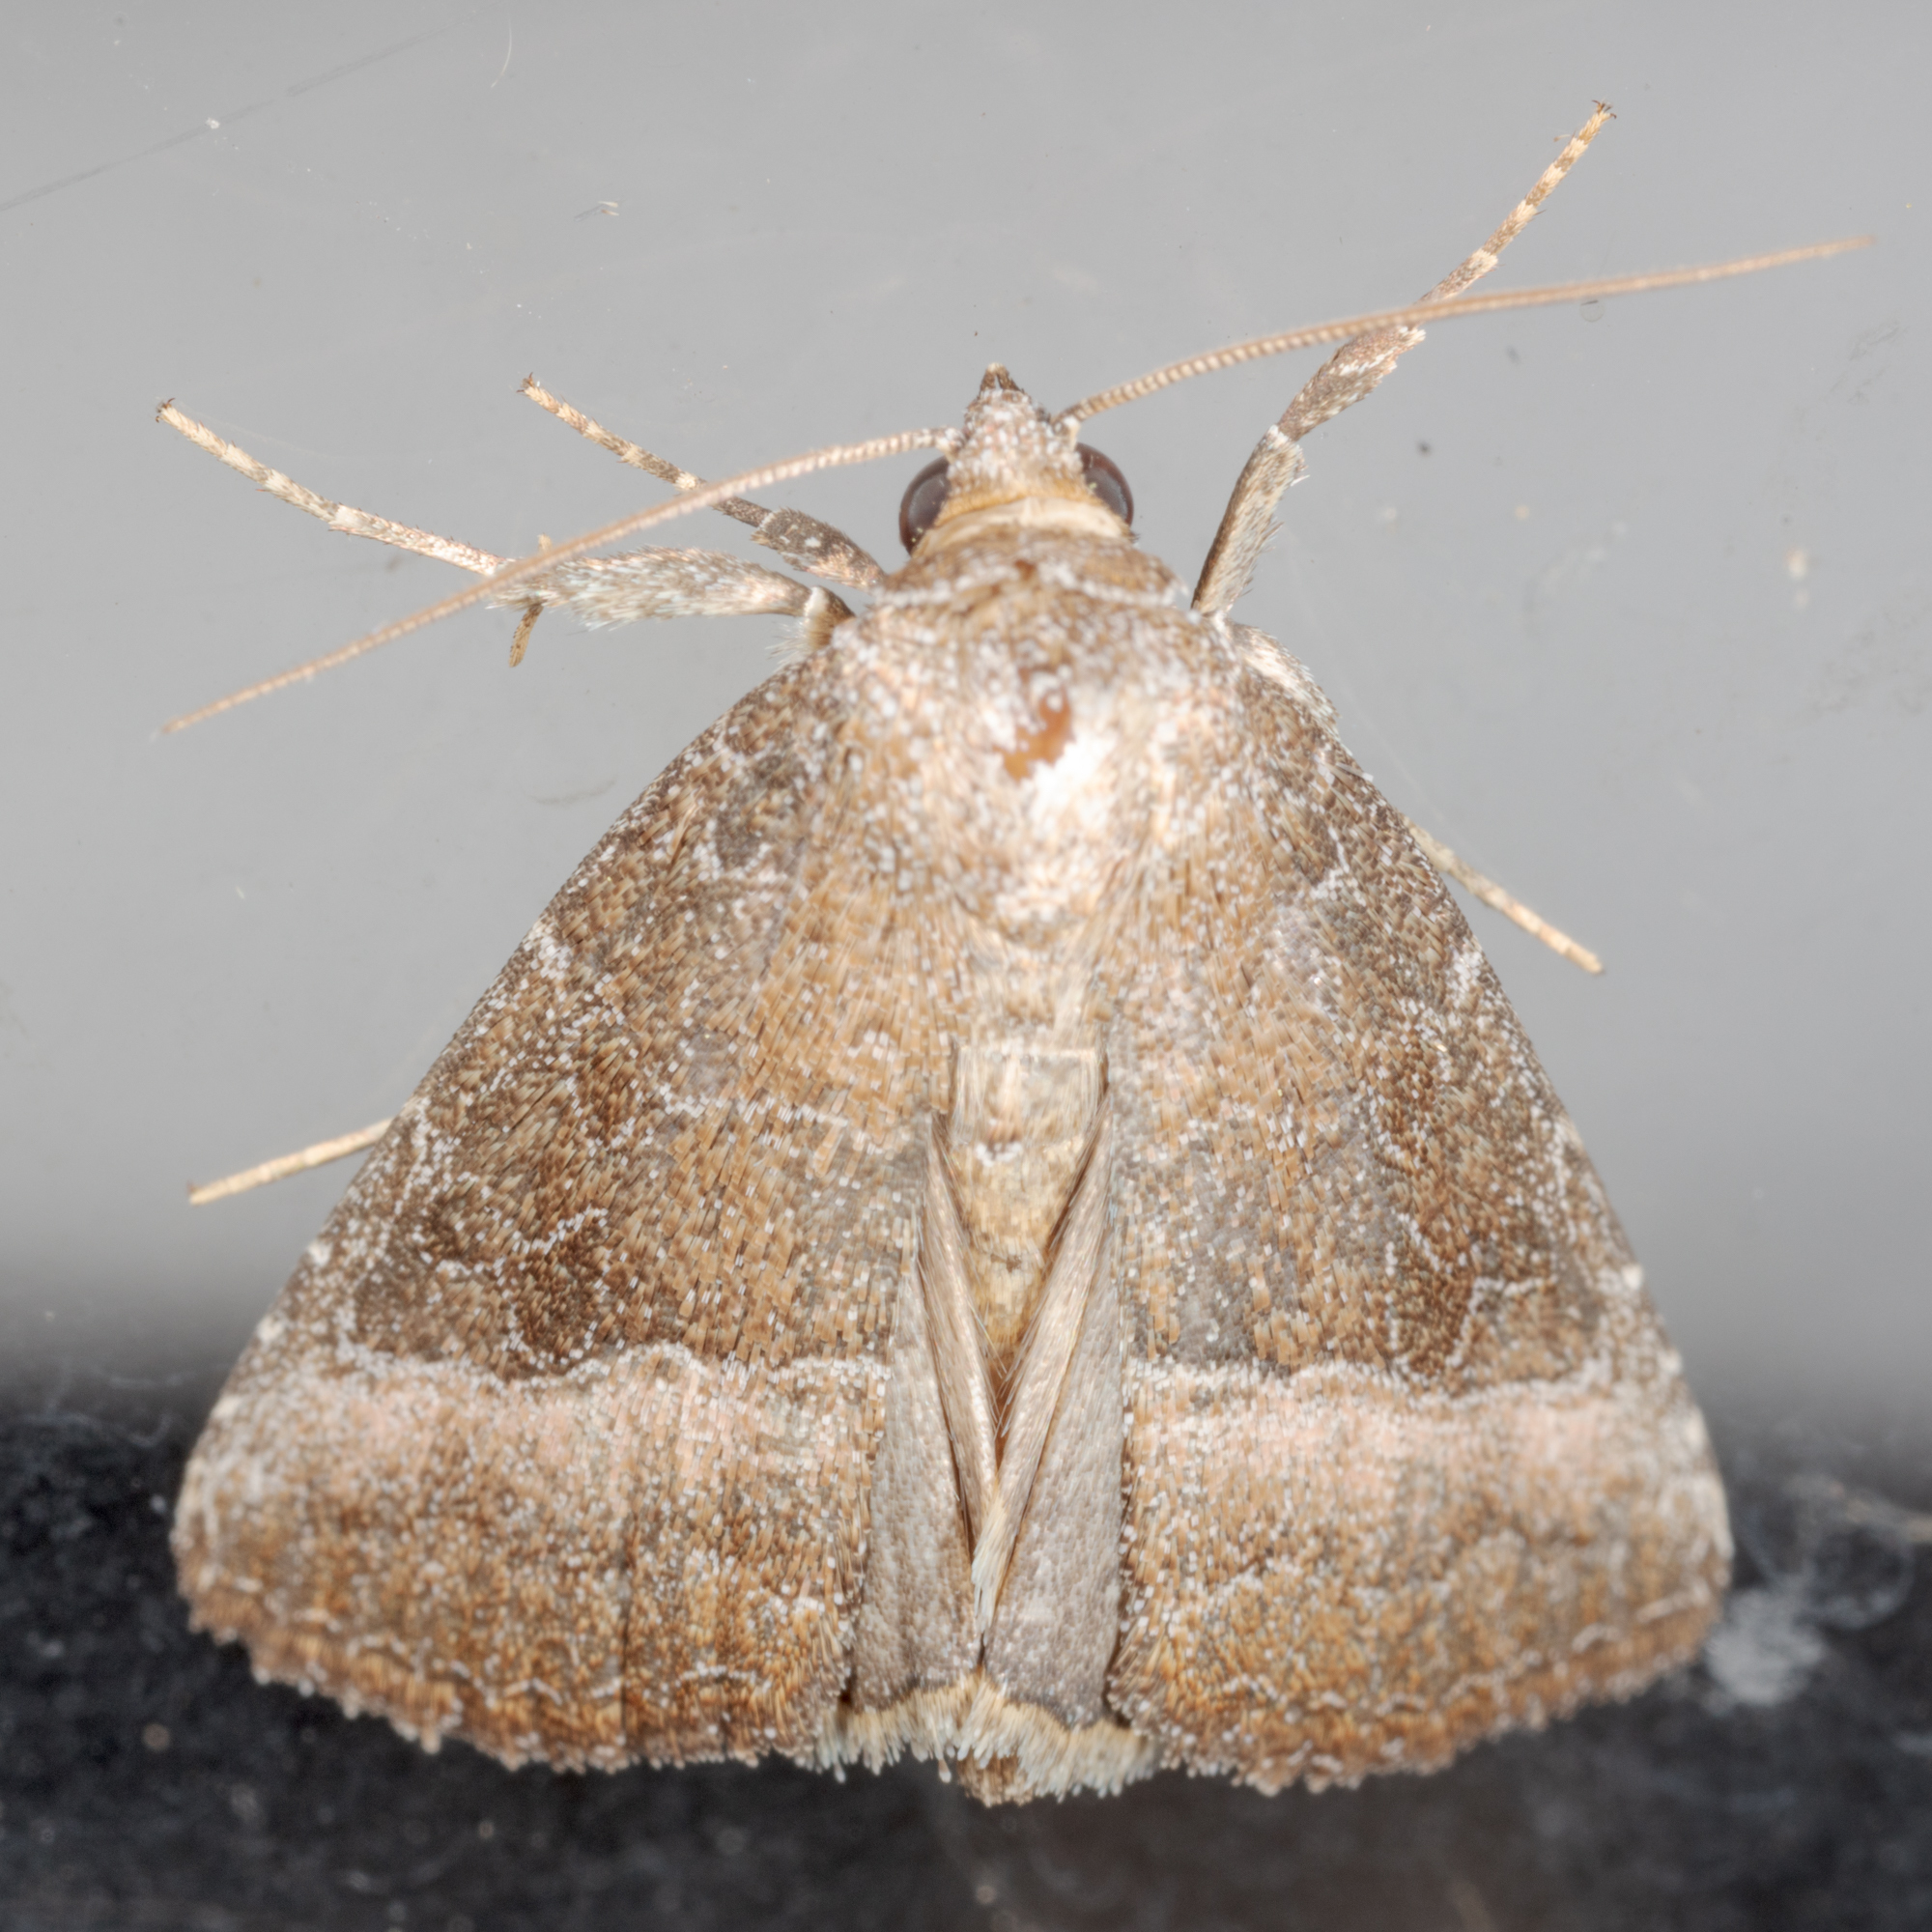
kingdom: Animalia
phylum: Arthropoda
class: Insecta
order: Lepidoptera
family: Noctuidae
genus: Ogdoconta
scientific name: Ogdoconta cinereola
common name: Common pinkband
